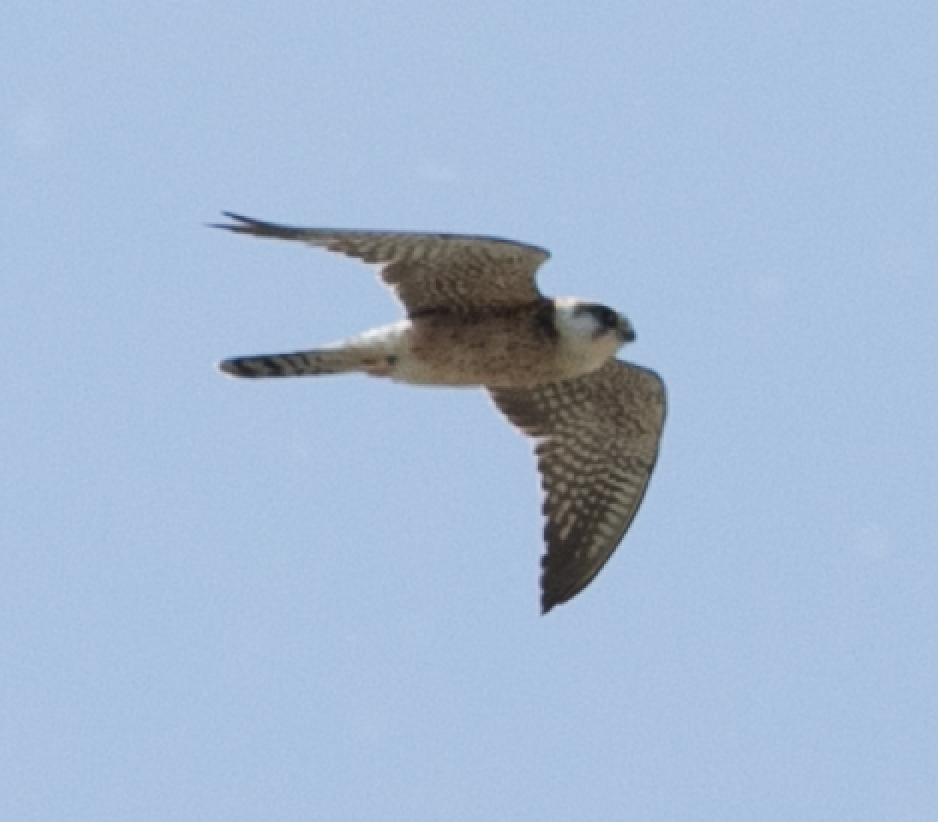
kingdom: Animalia
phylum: Chordata
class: Aves
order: Falconiformes
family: Falconidae
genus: Falco
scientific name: Falco vespertinus
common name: Red-footed falcon
